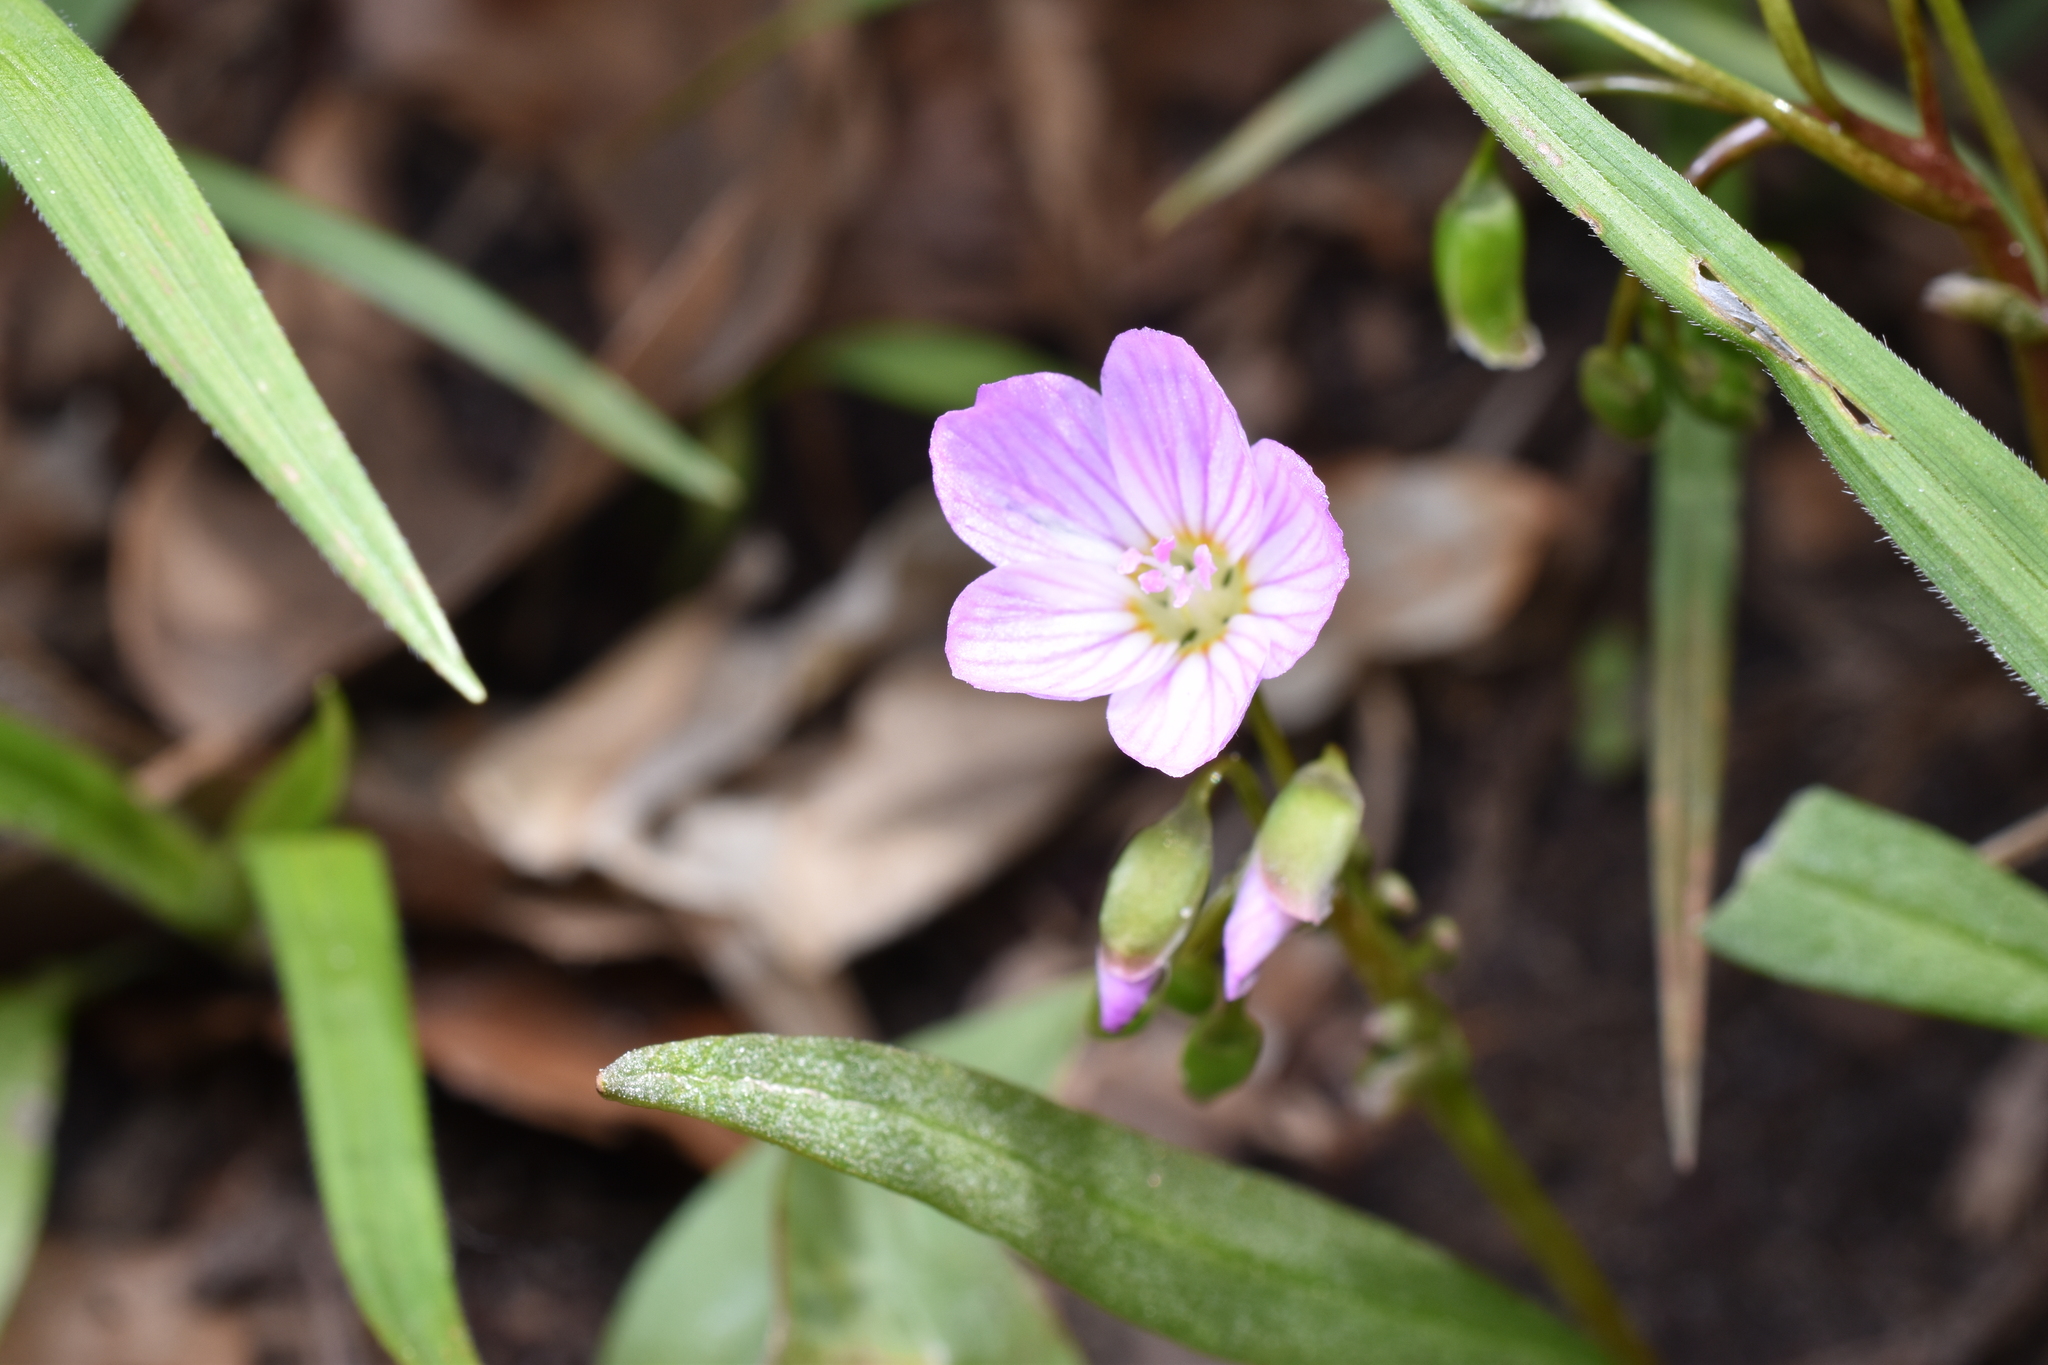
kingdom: Plantae
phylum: Tracheophyta
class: Magnoliopsida
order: Caryophyllales
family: Montiaceae
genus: Claytonia
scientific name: Claytonia virginica
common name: Virginia springbeauty
